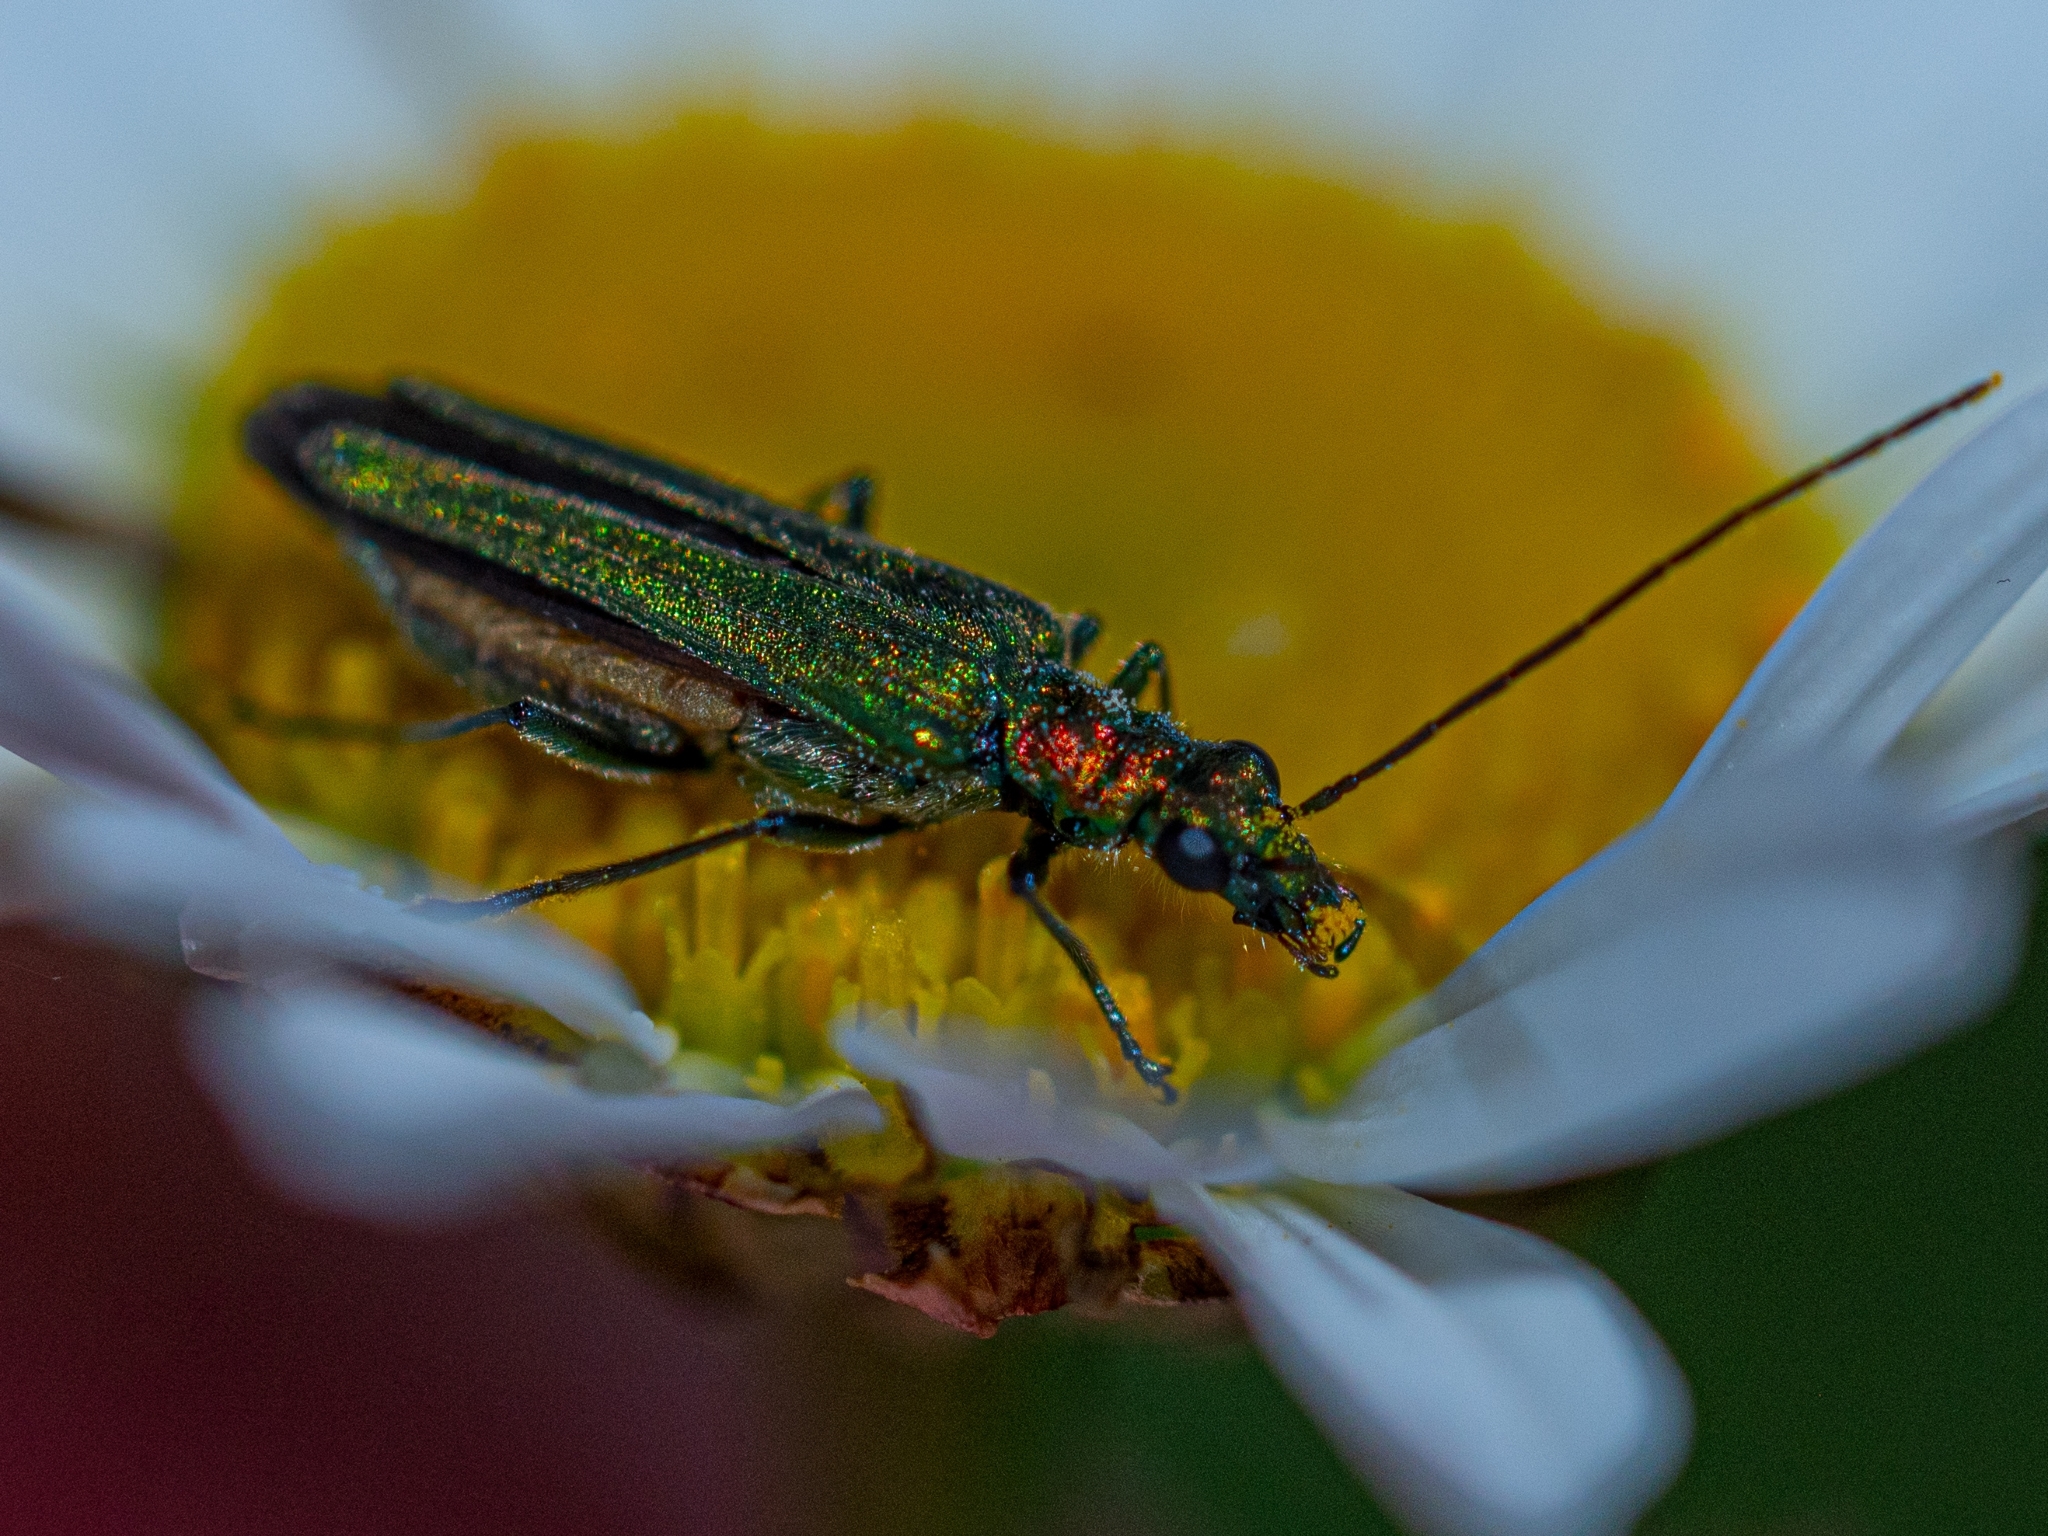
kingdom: Animalia
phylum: Arthropoda
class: Insecta
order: Coleoptera
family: Oedemeridae
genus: Oedemera
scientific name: Oedemera nobilis
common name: Swollen-thighed beetle
